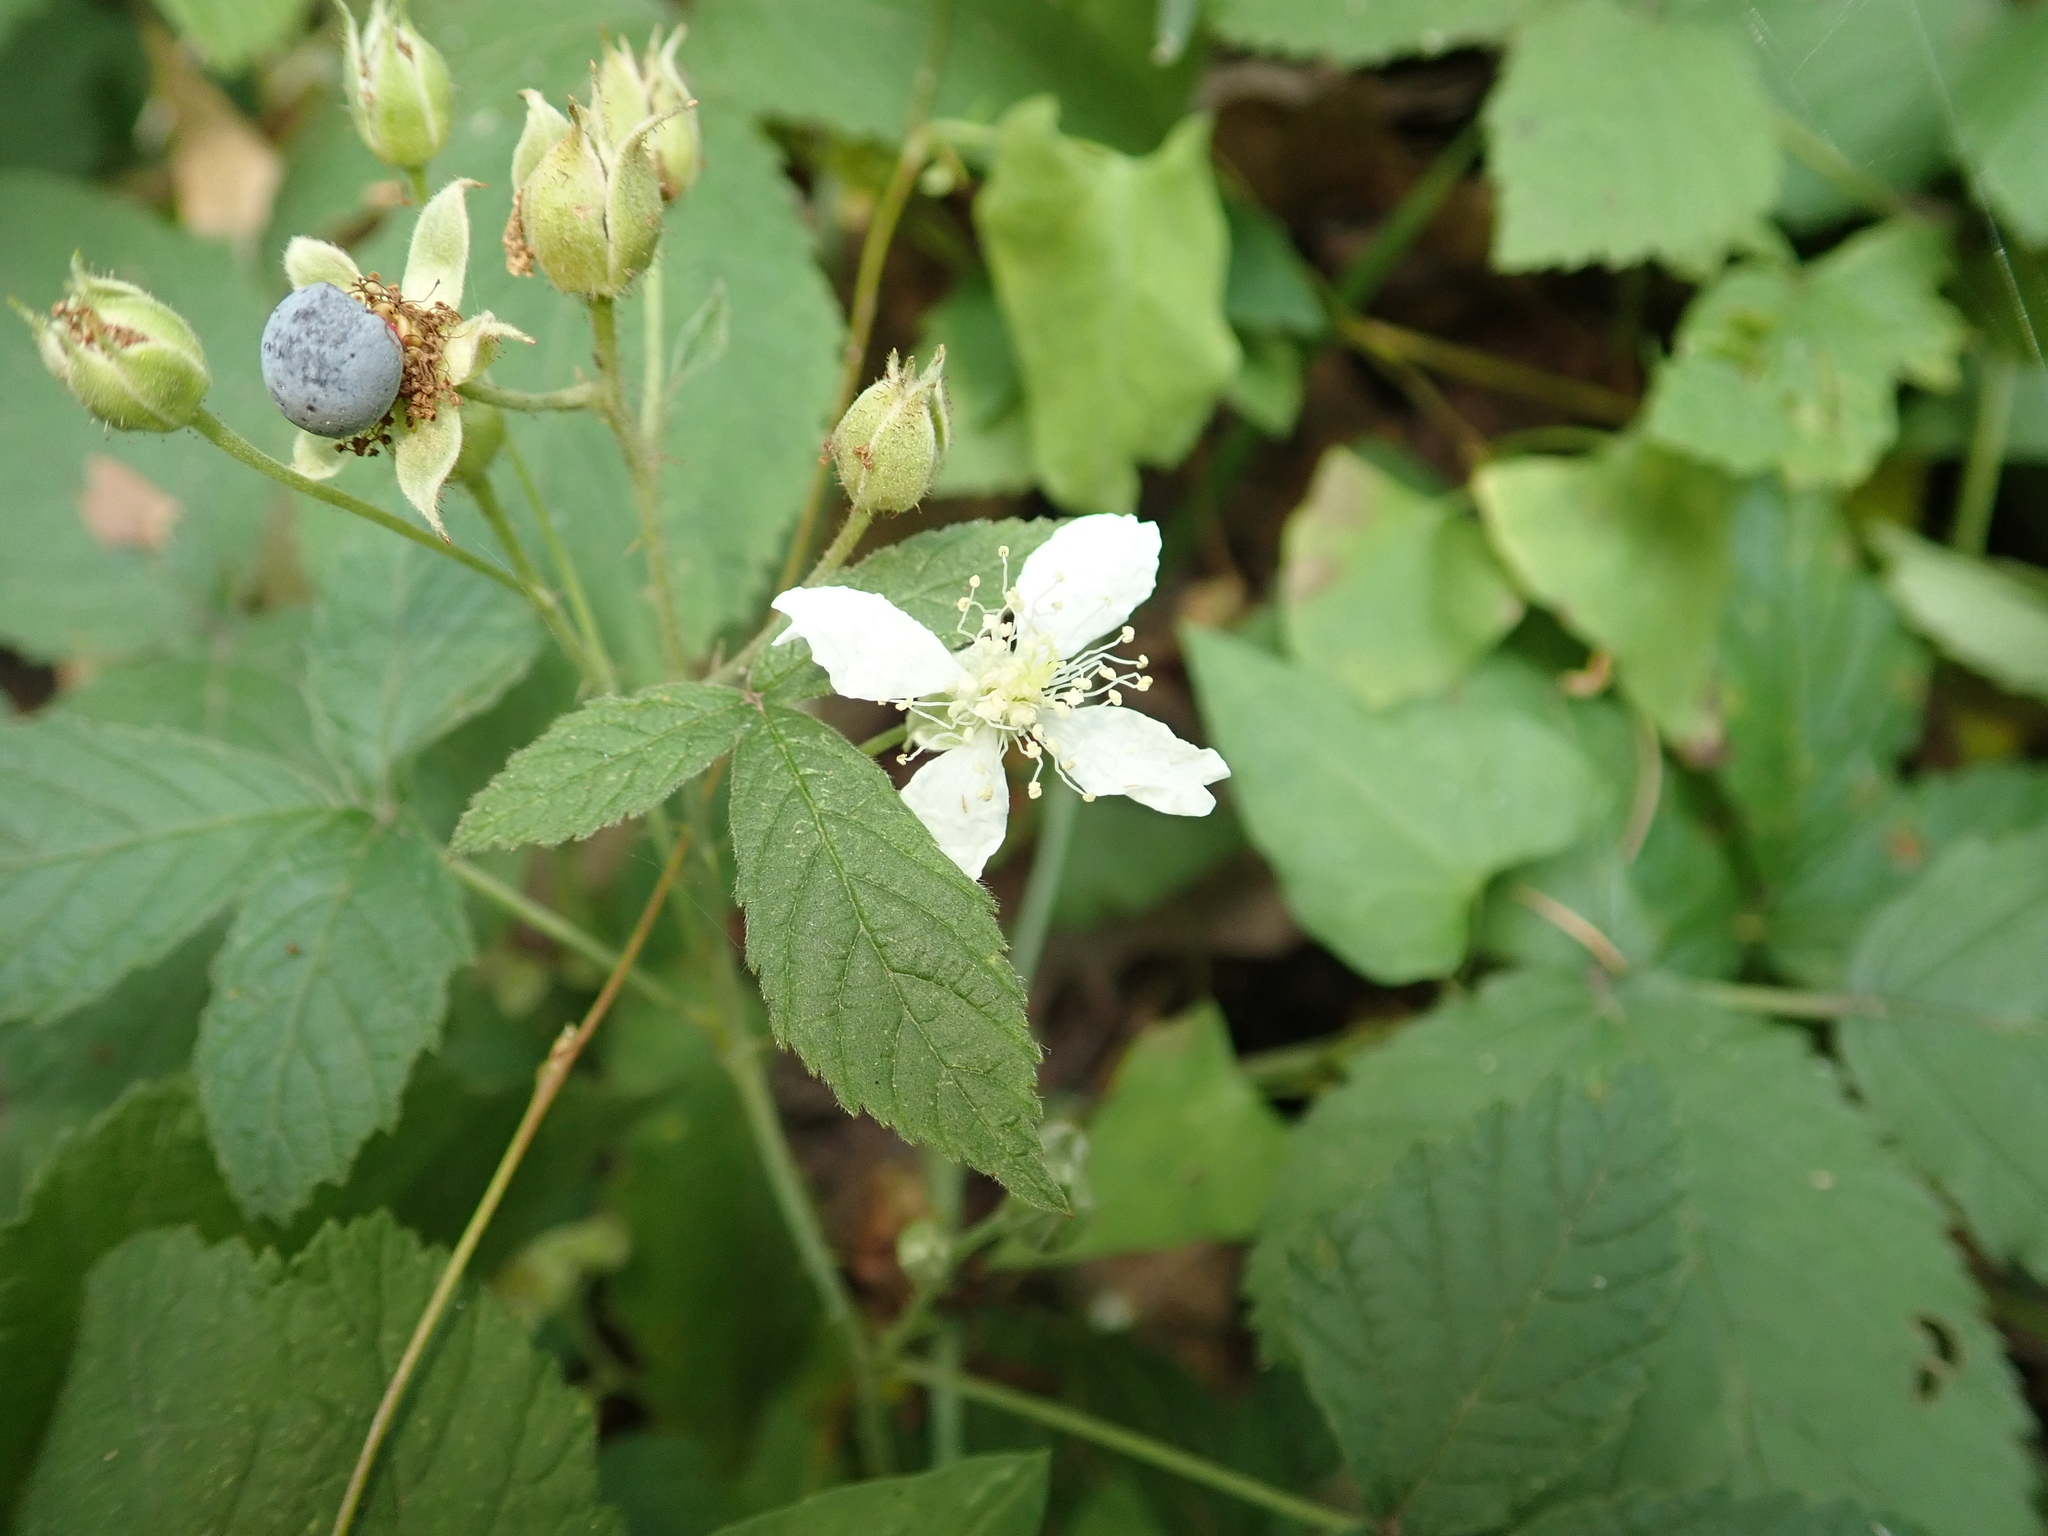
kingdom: Plantae
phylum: Tracheophyta
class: Magnoliopsida
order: Rosales
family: Rosaceae
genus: Rubus
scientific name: Rubus caesius
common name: Dewberry
